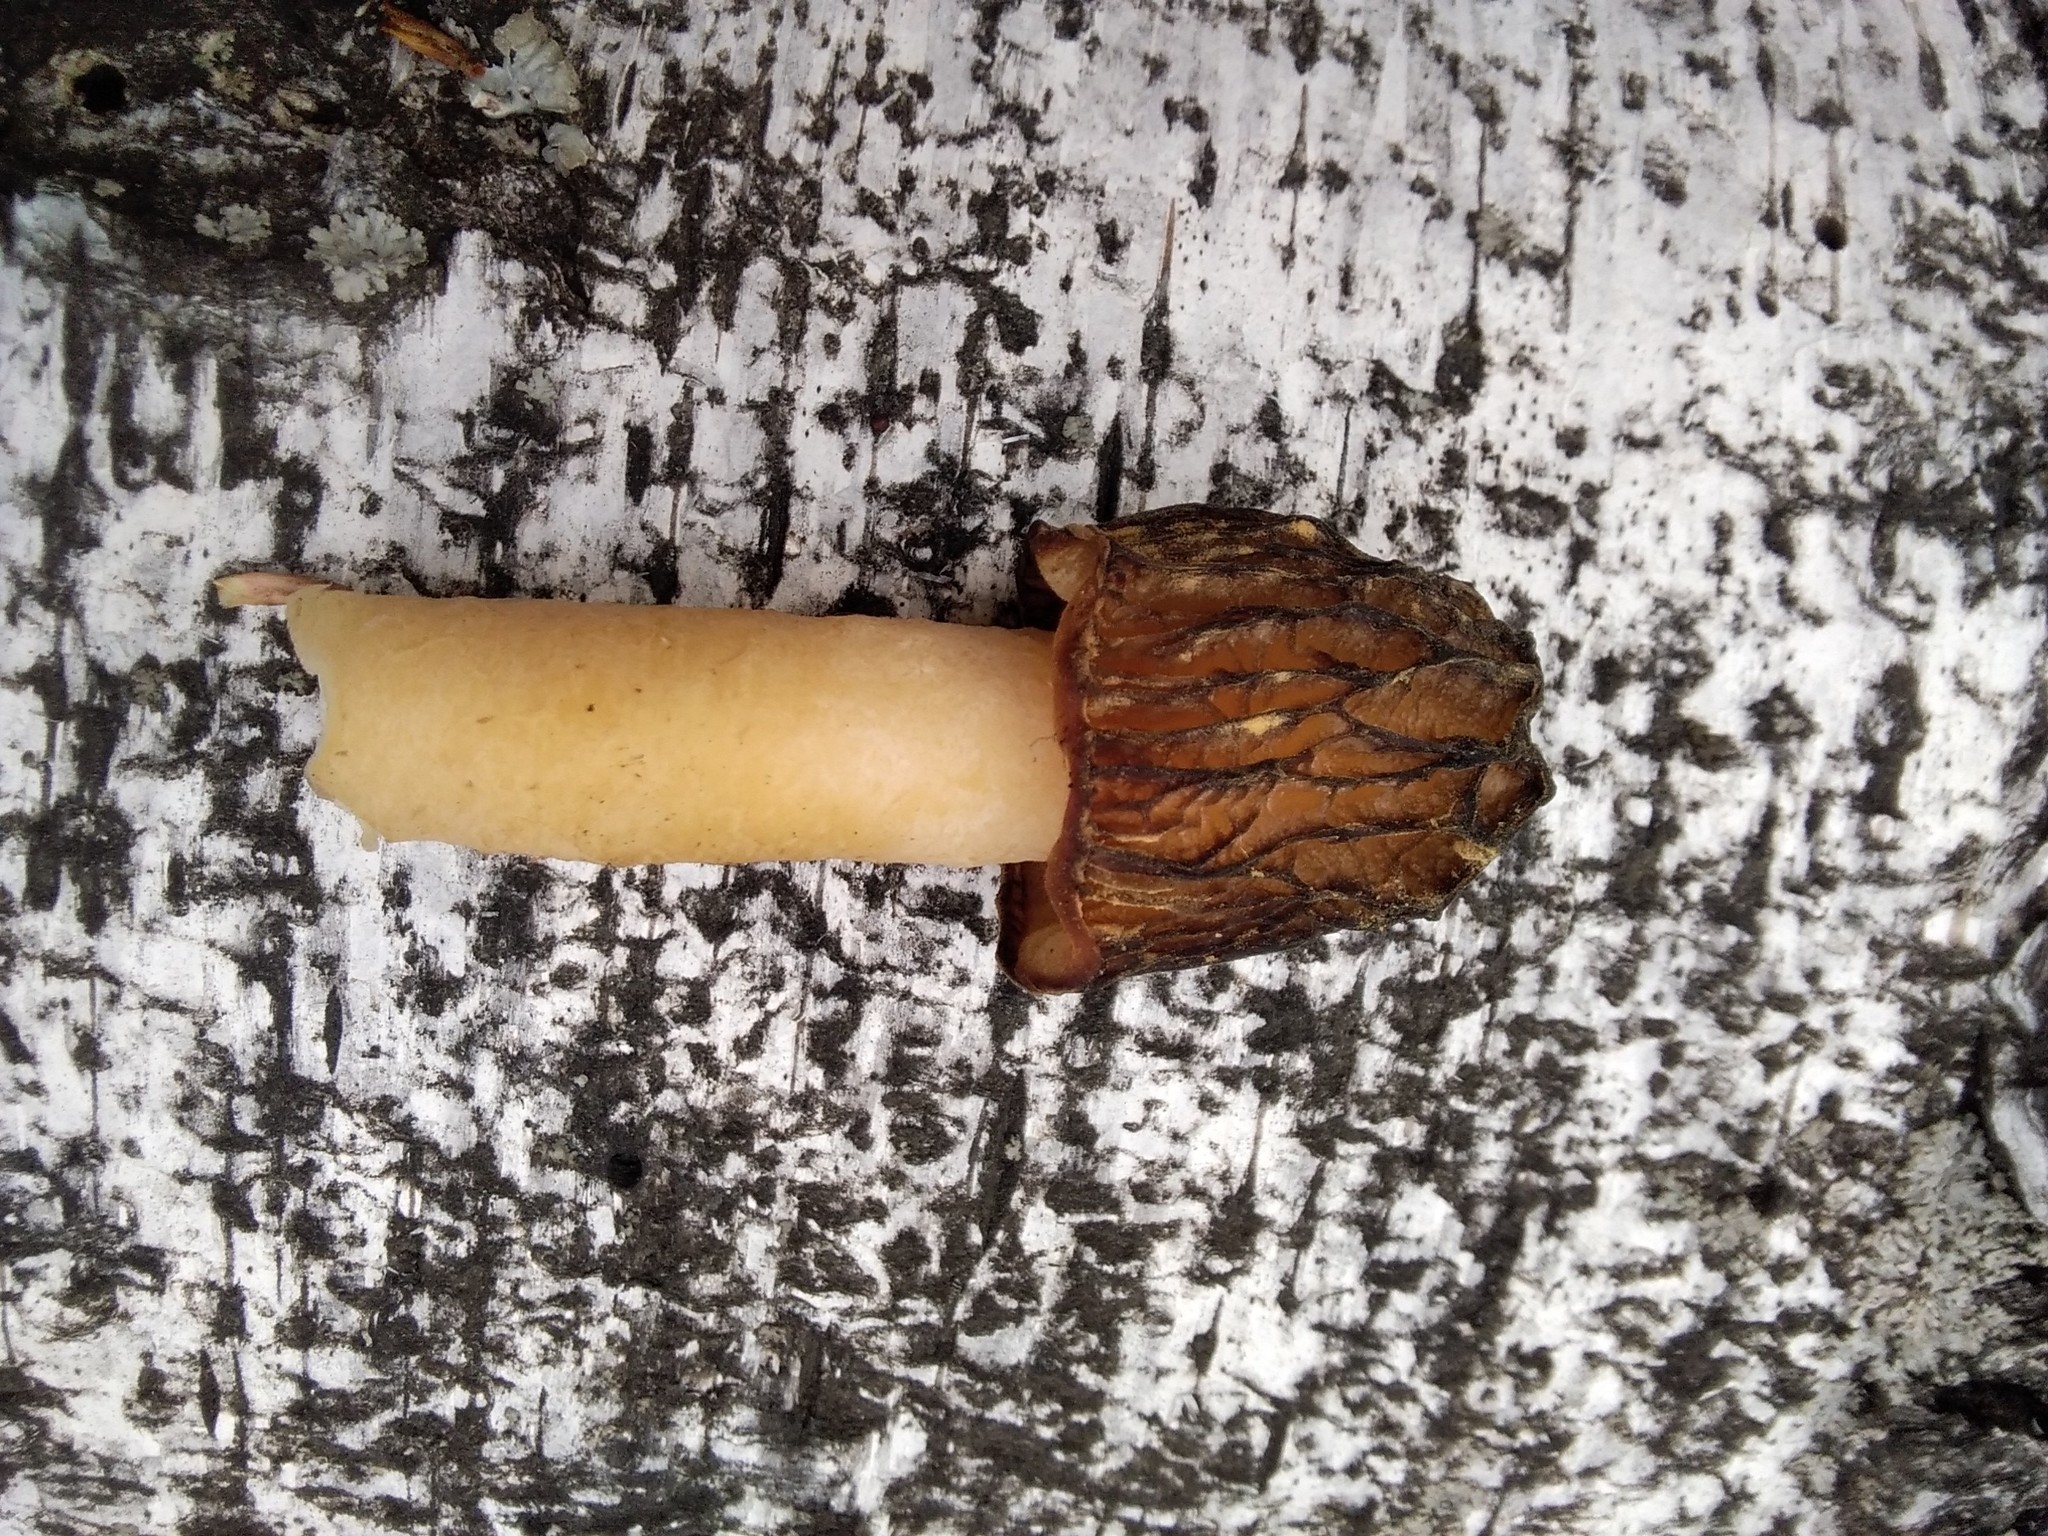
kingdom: Fungi
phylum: Ascomycota
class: Pezizomycetes
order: Pezizales
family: Morchellaceae
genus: Verpa
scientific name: Verpa bohemica
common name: Wrinkled thimble morel
